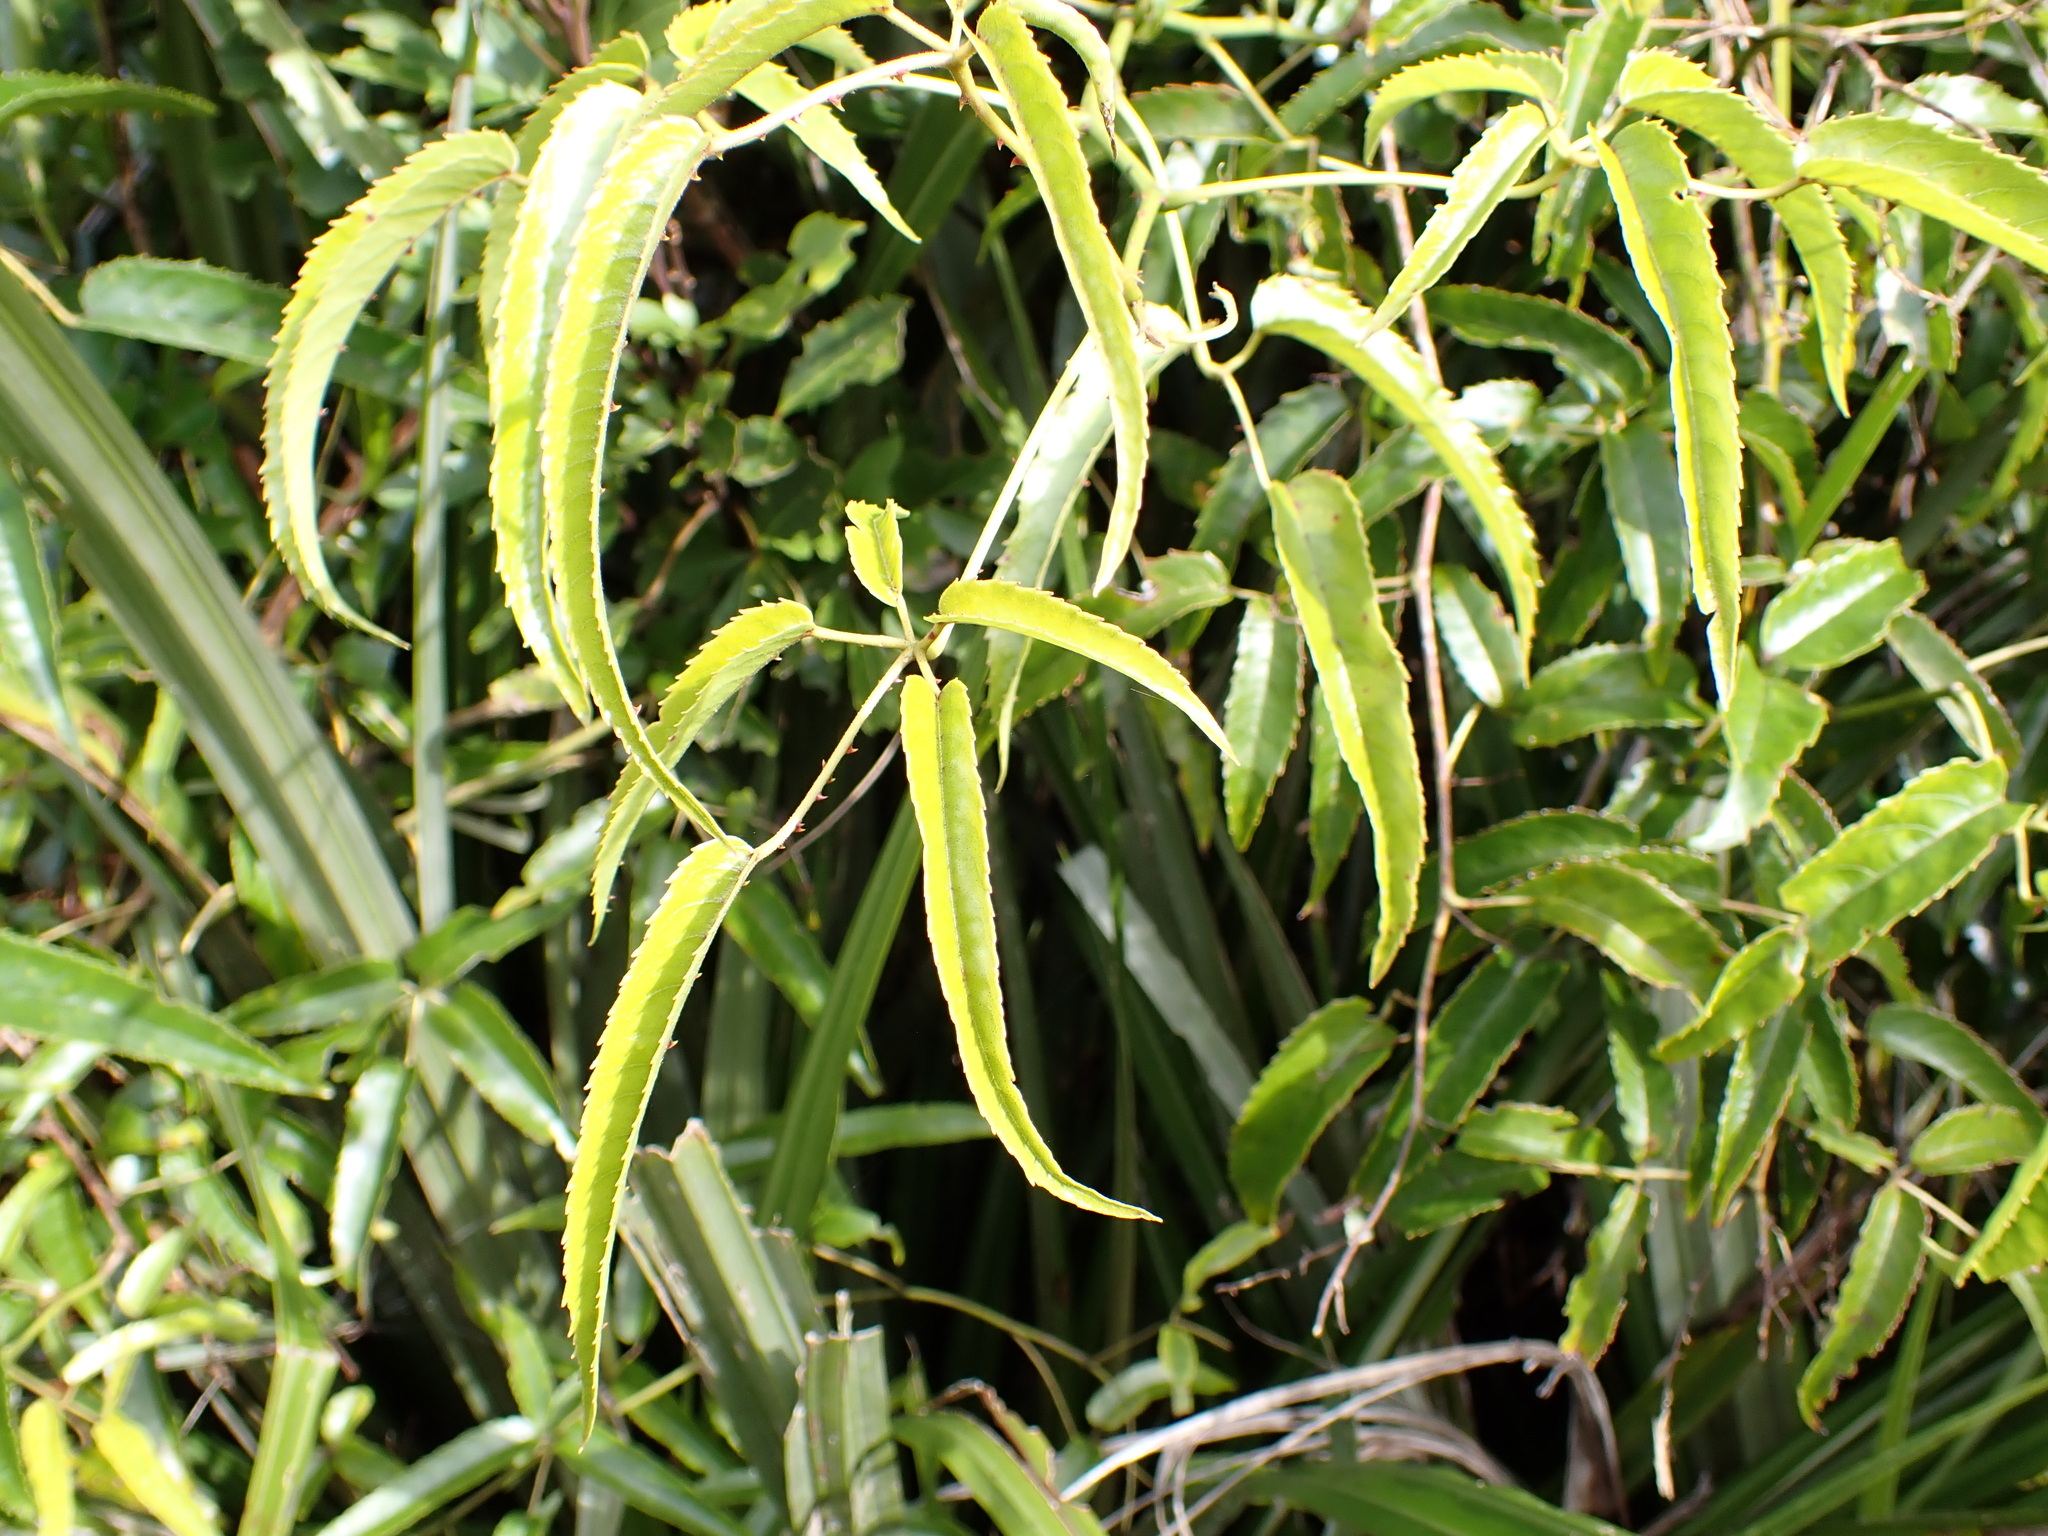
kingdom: Plantae
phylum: Tracheophyta
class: Magnoliopsida
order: Rosales
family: Rosaceae
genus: Rubus
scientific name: Rubus cissoides
